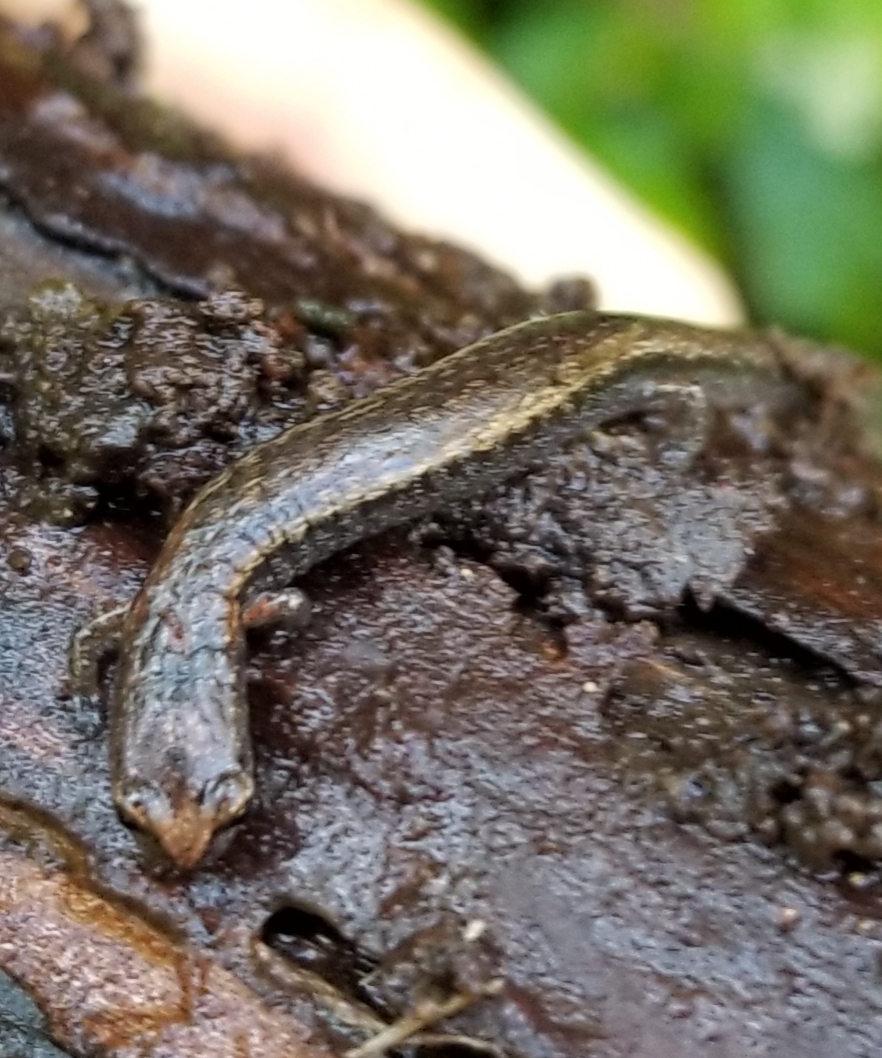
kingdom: Animalia
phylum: Chordata
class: Amphibia
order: Caudata
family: Plethodontidae
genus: Batrachoseps
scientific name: Batrachoseps attenuatus
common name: California slender salamander
